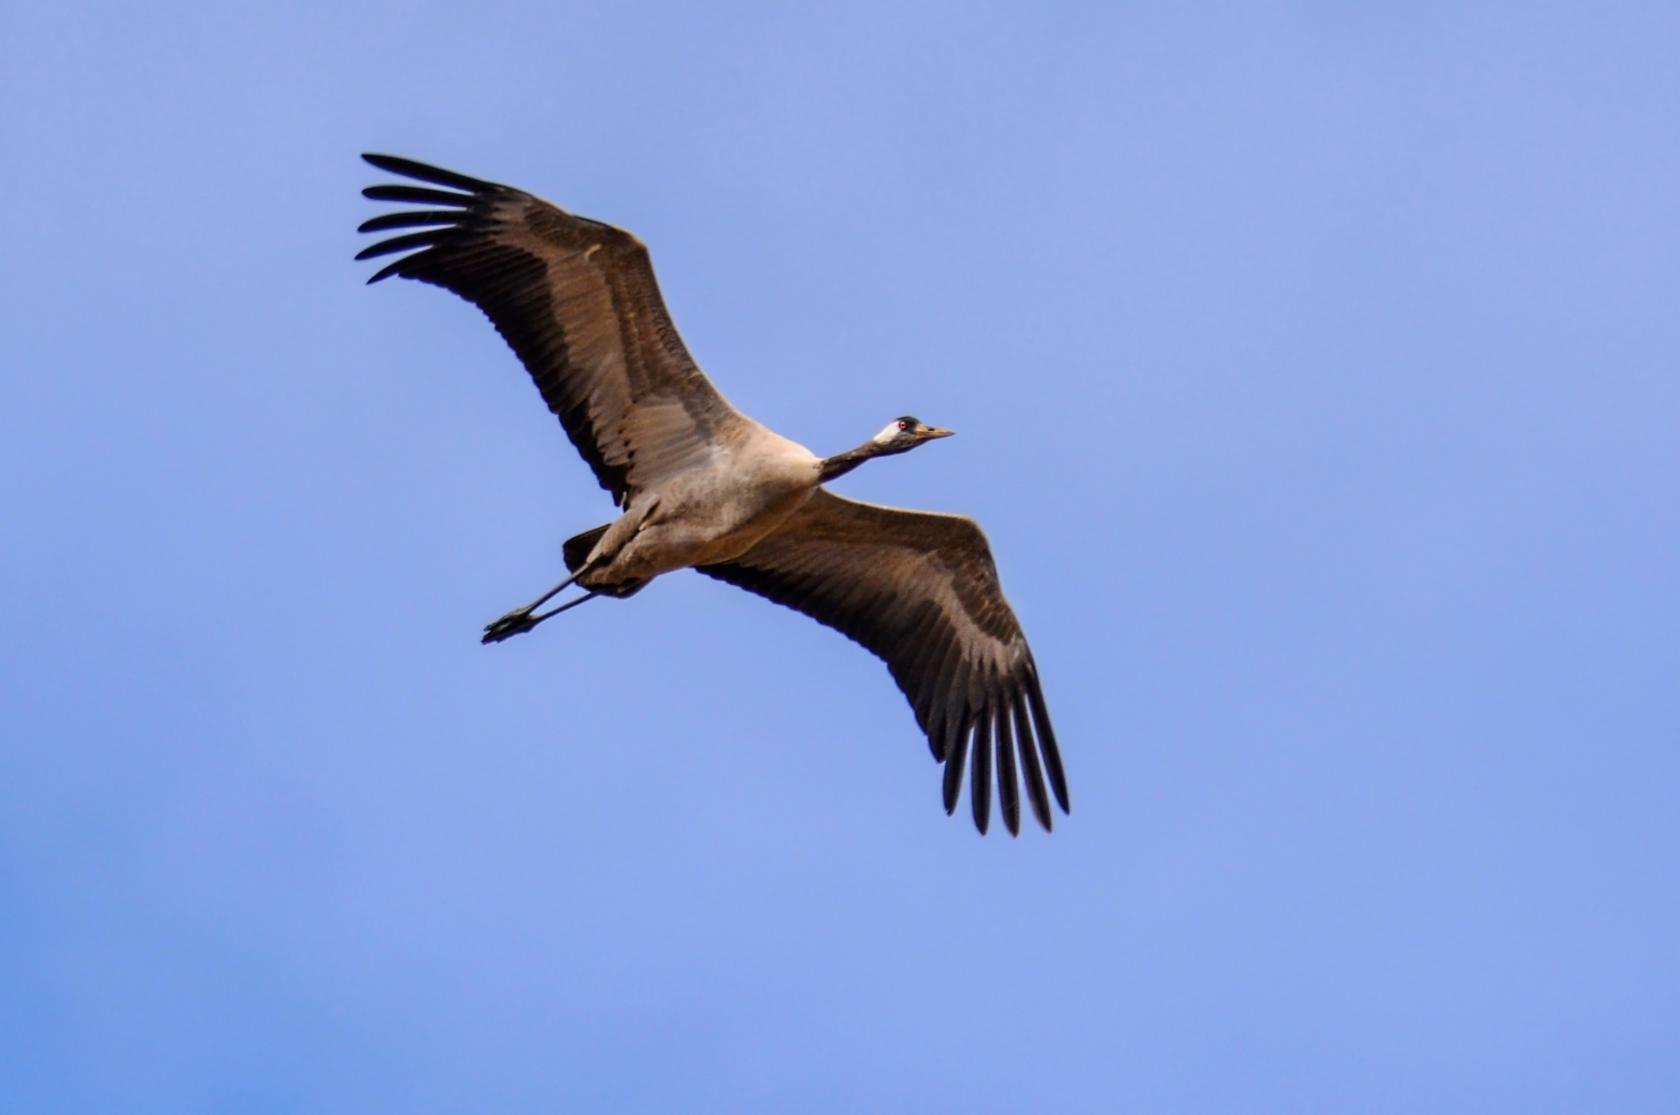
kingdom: Animalia
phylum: Chordata
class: Aves
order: Gruiformes
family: Gruidae
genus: Grus
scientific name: Grus grus
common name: Common crane
